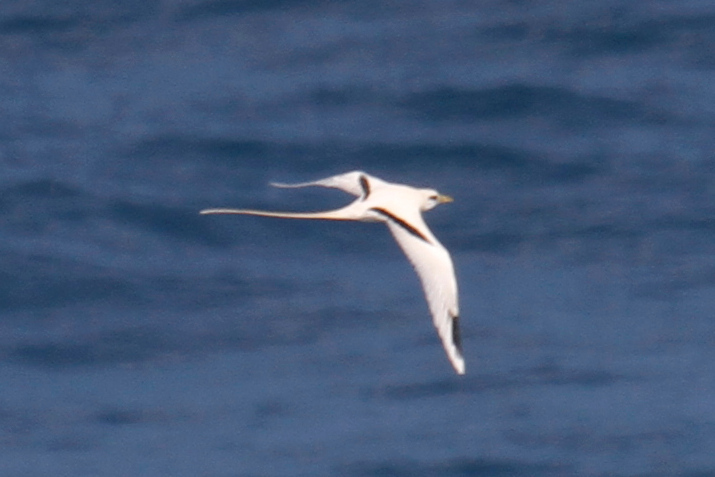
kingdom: Animalia
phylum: Chordata
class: Aves
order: Phaethontiformes
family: Phaethontidae
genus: Phaethon
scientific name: Phaethon lepturus
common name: White-tailed tropicbird
